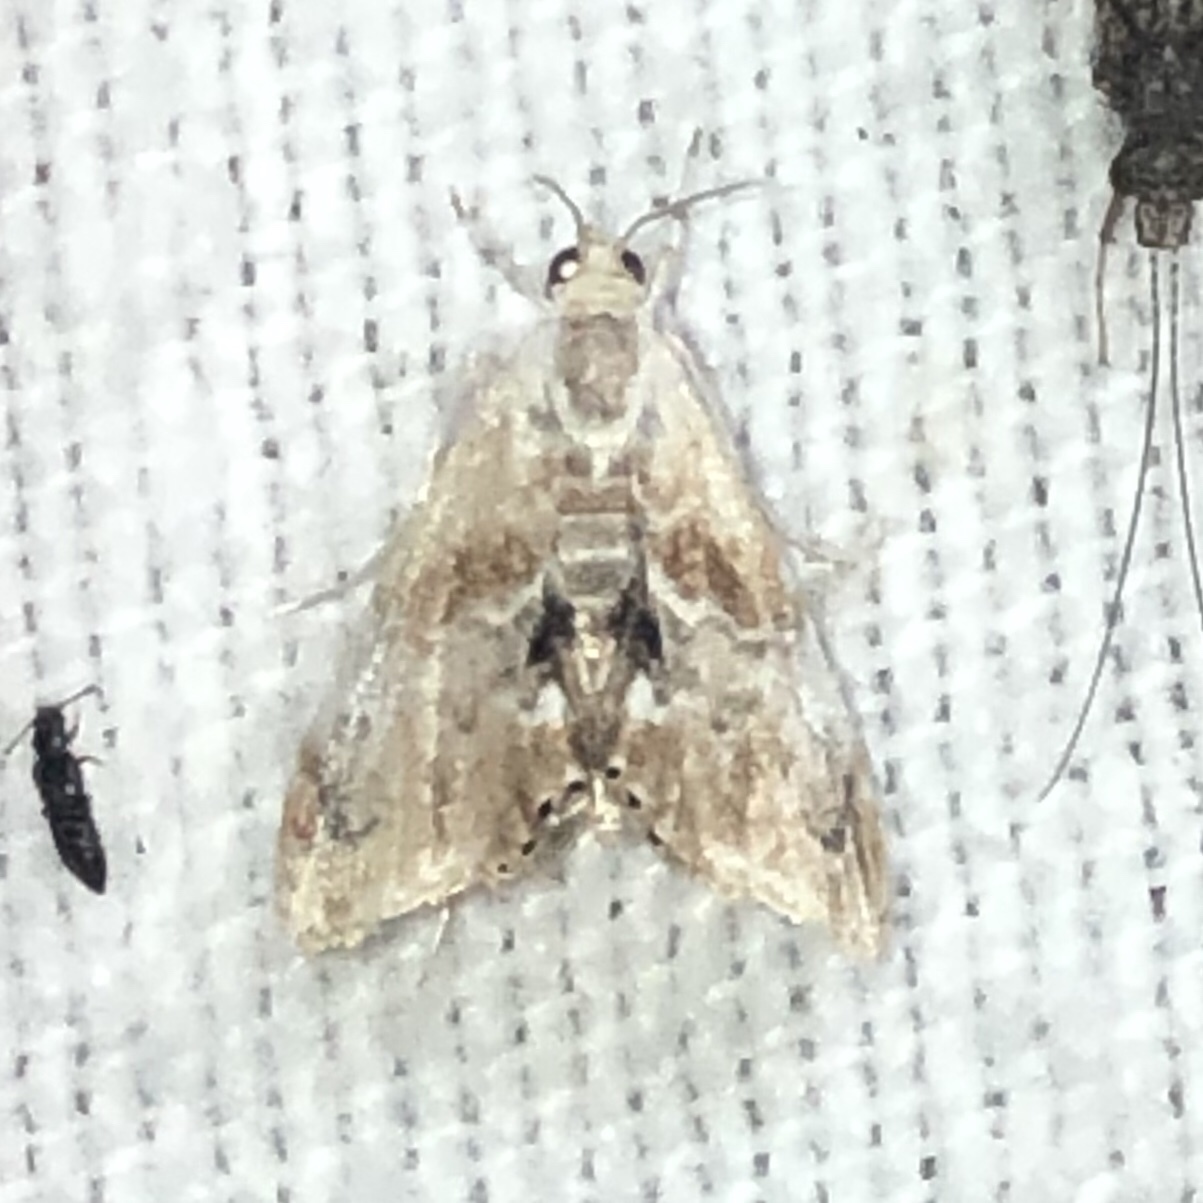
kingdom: Animalia
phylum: Arthropoda
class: Insecta
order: Lepidoptera
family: Crambidae
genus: Dicymolomia
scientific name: Dicymolomia julianalis
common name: Julia's dicymolomia moth
